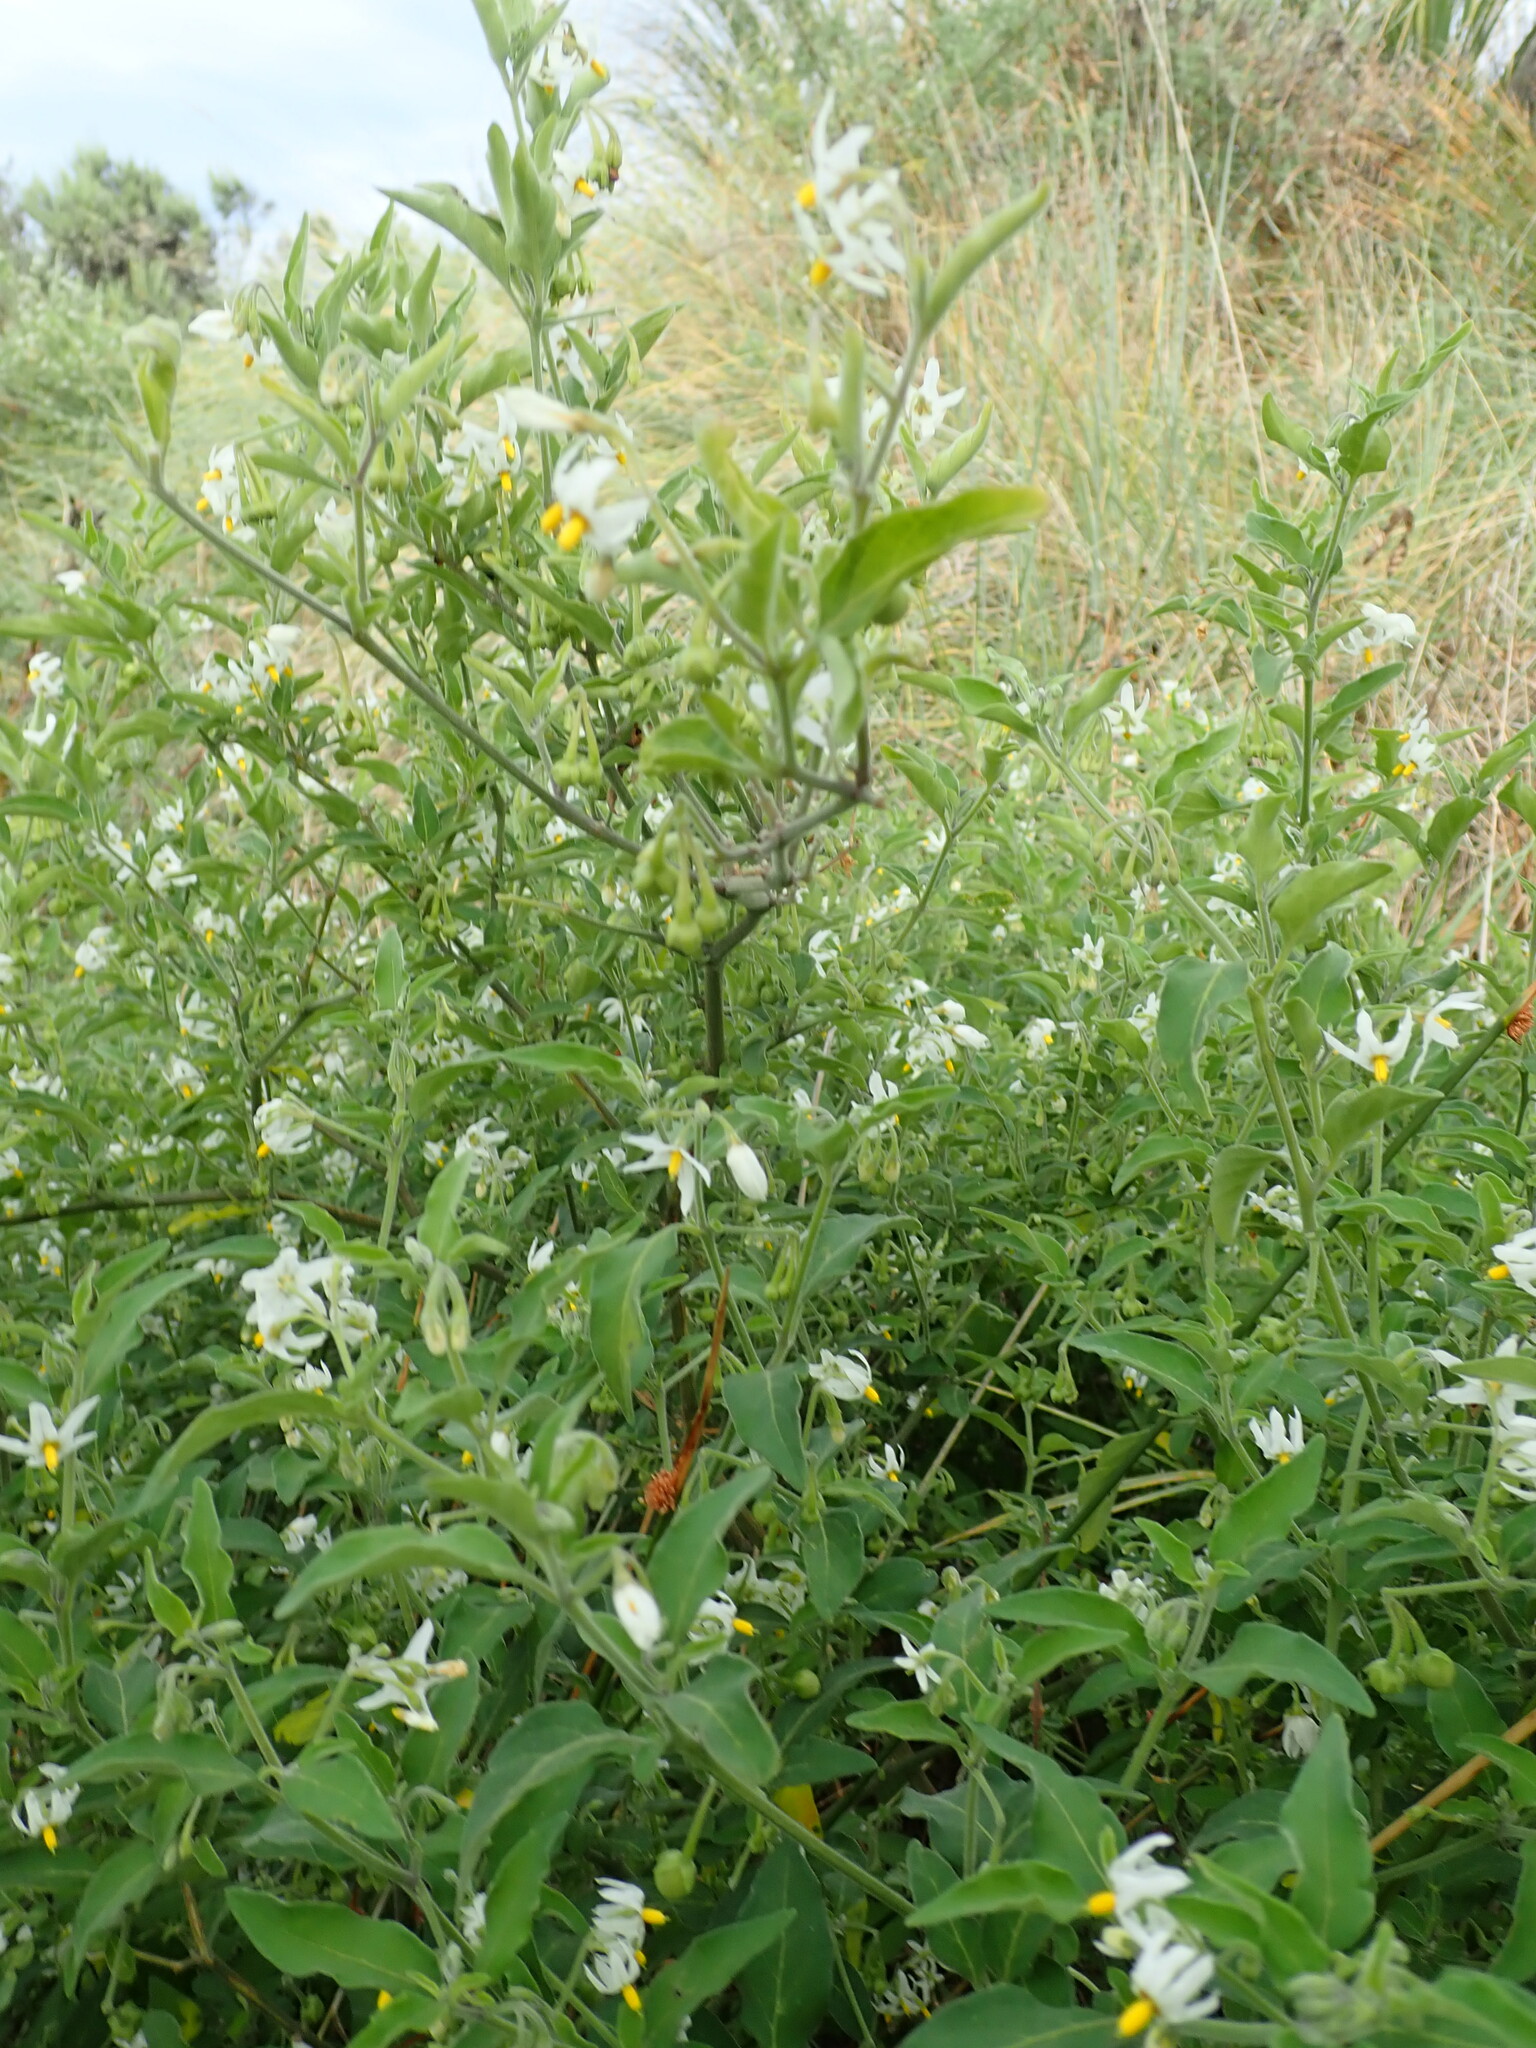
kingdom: Plantae
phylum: Tracheophyta
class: Magnoliopsida
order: Solanales
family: Solanaceae
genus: Solanum
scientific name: Solanum chenopodioides
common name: Tall nightshade
